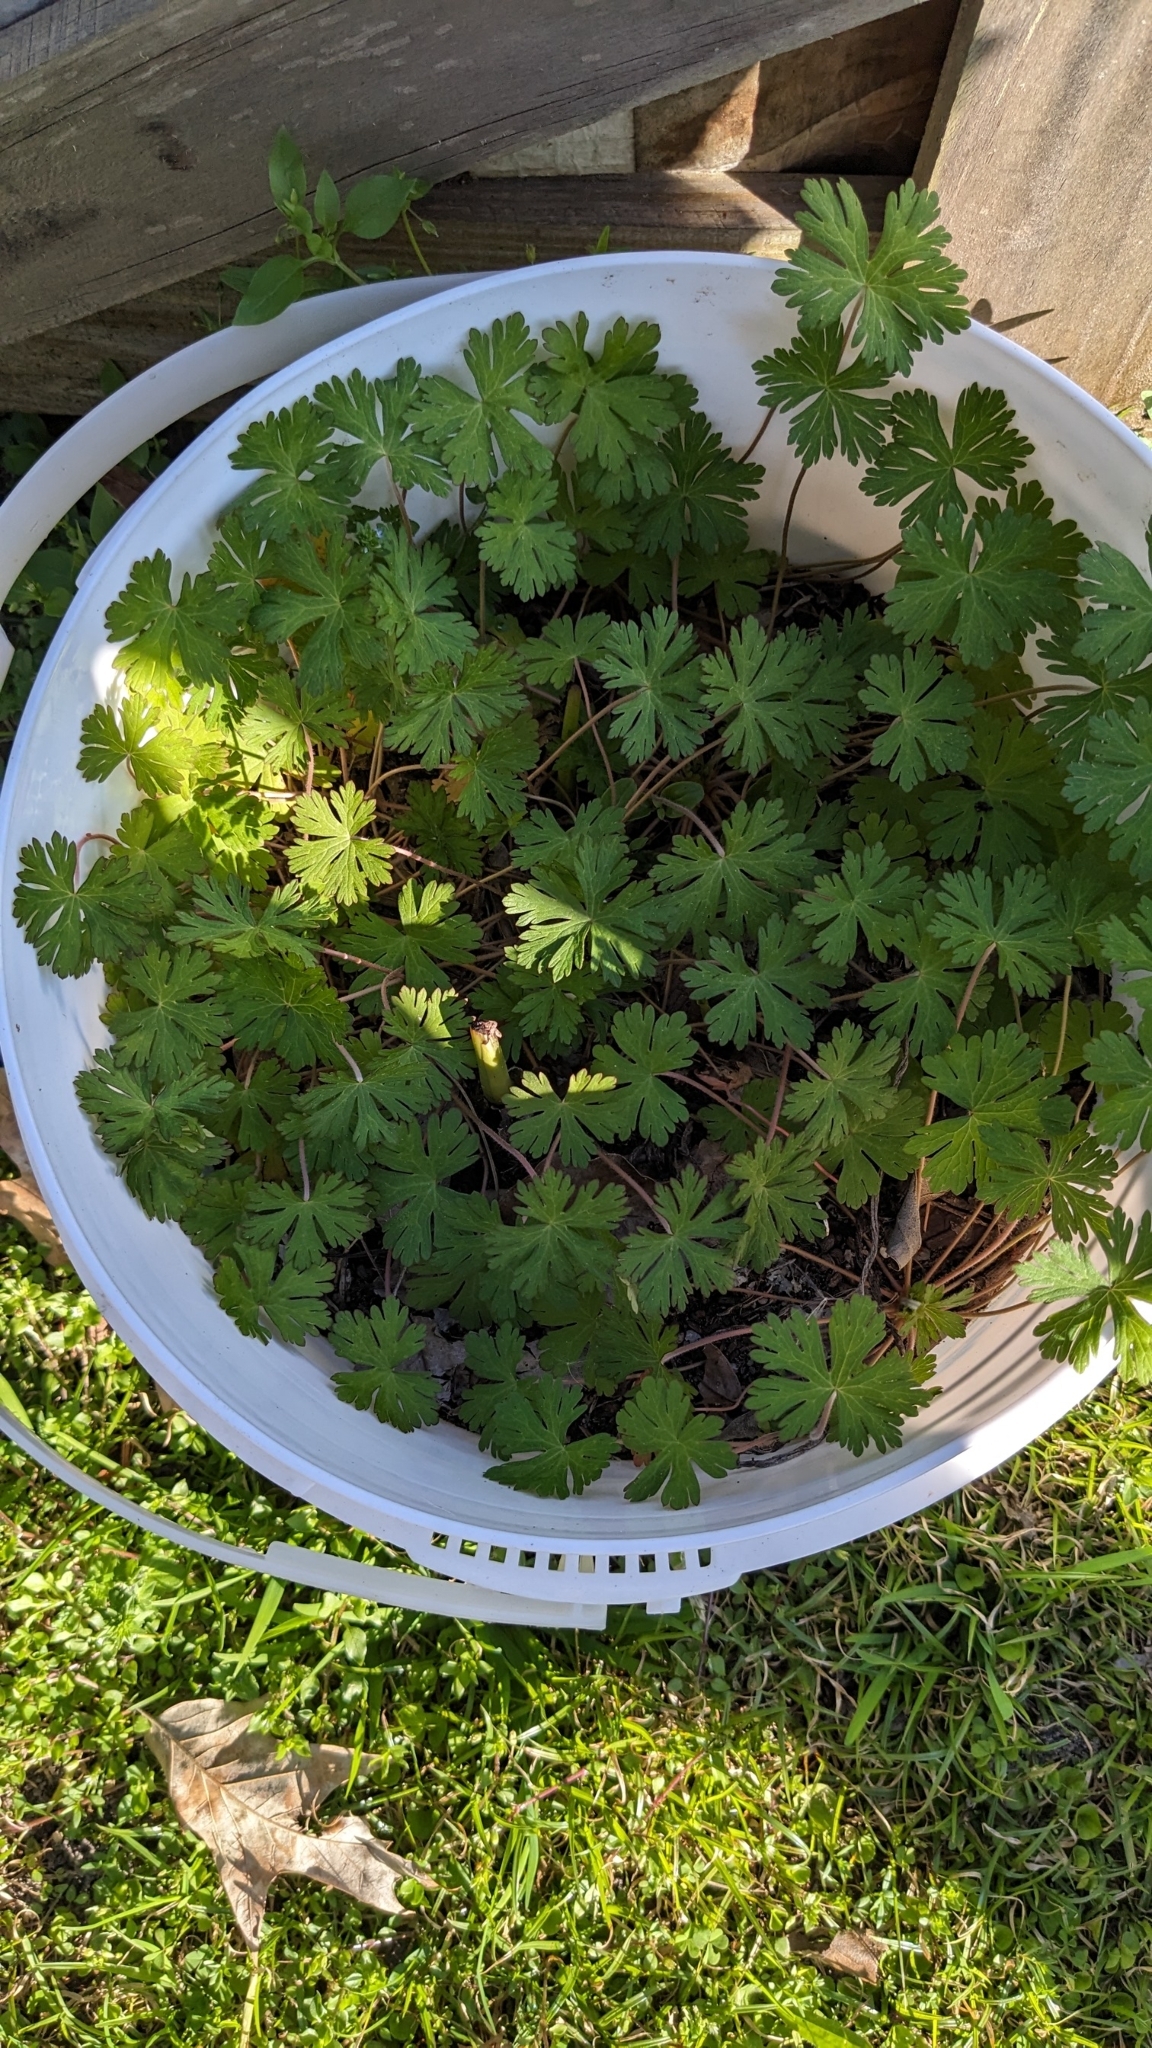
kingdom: Plantae
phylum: Tracheophyta
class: Magnoliopsida
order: Geraniales
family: Geraniaceae
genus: Geranium
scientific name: Geranium carolinianum
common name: Carolina crane's-bill
